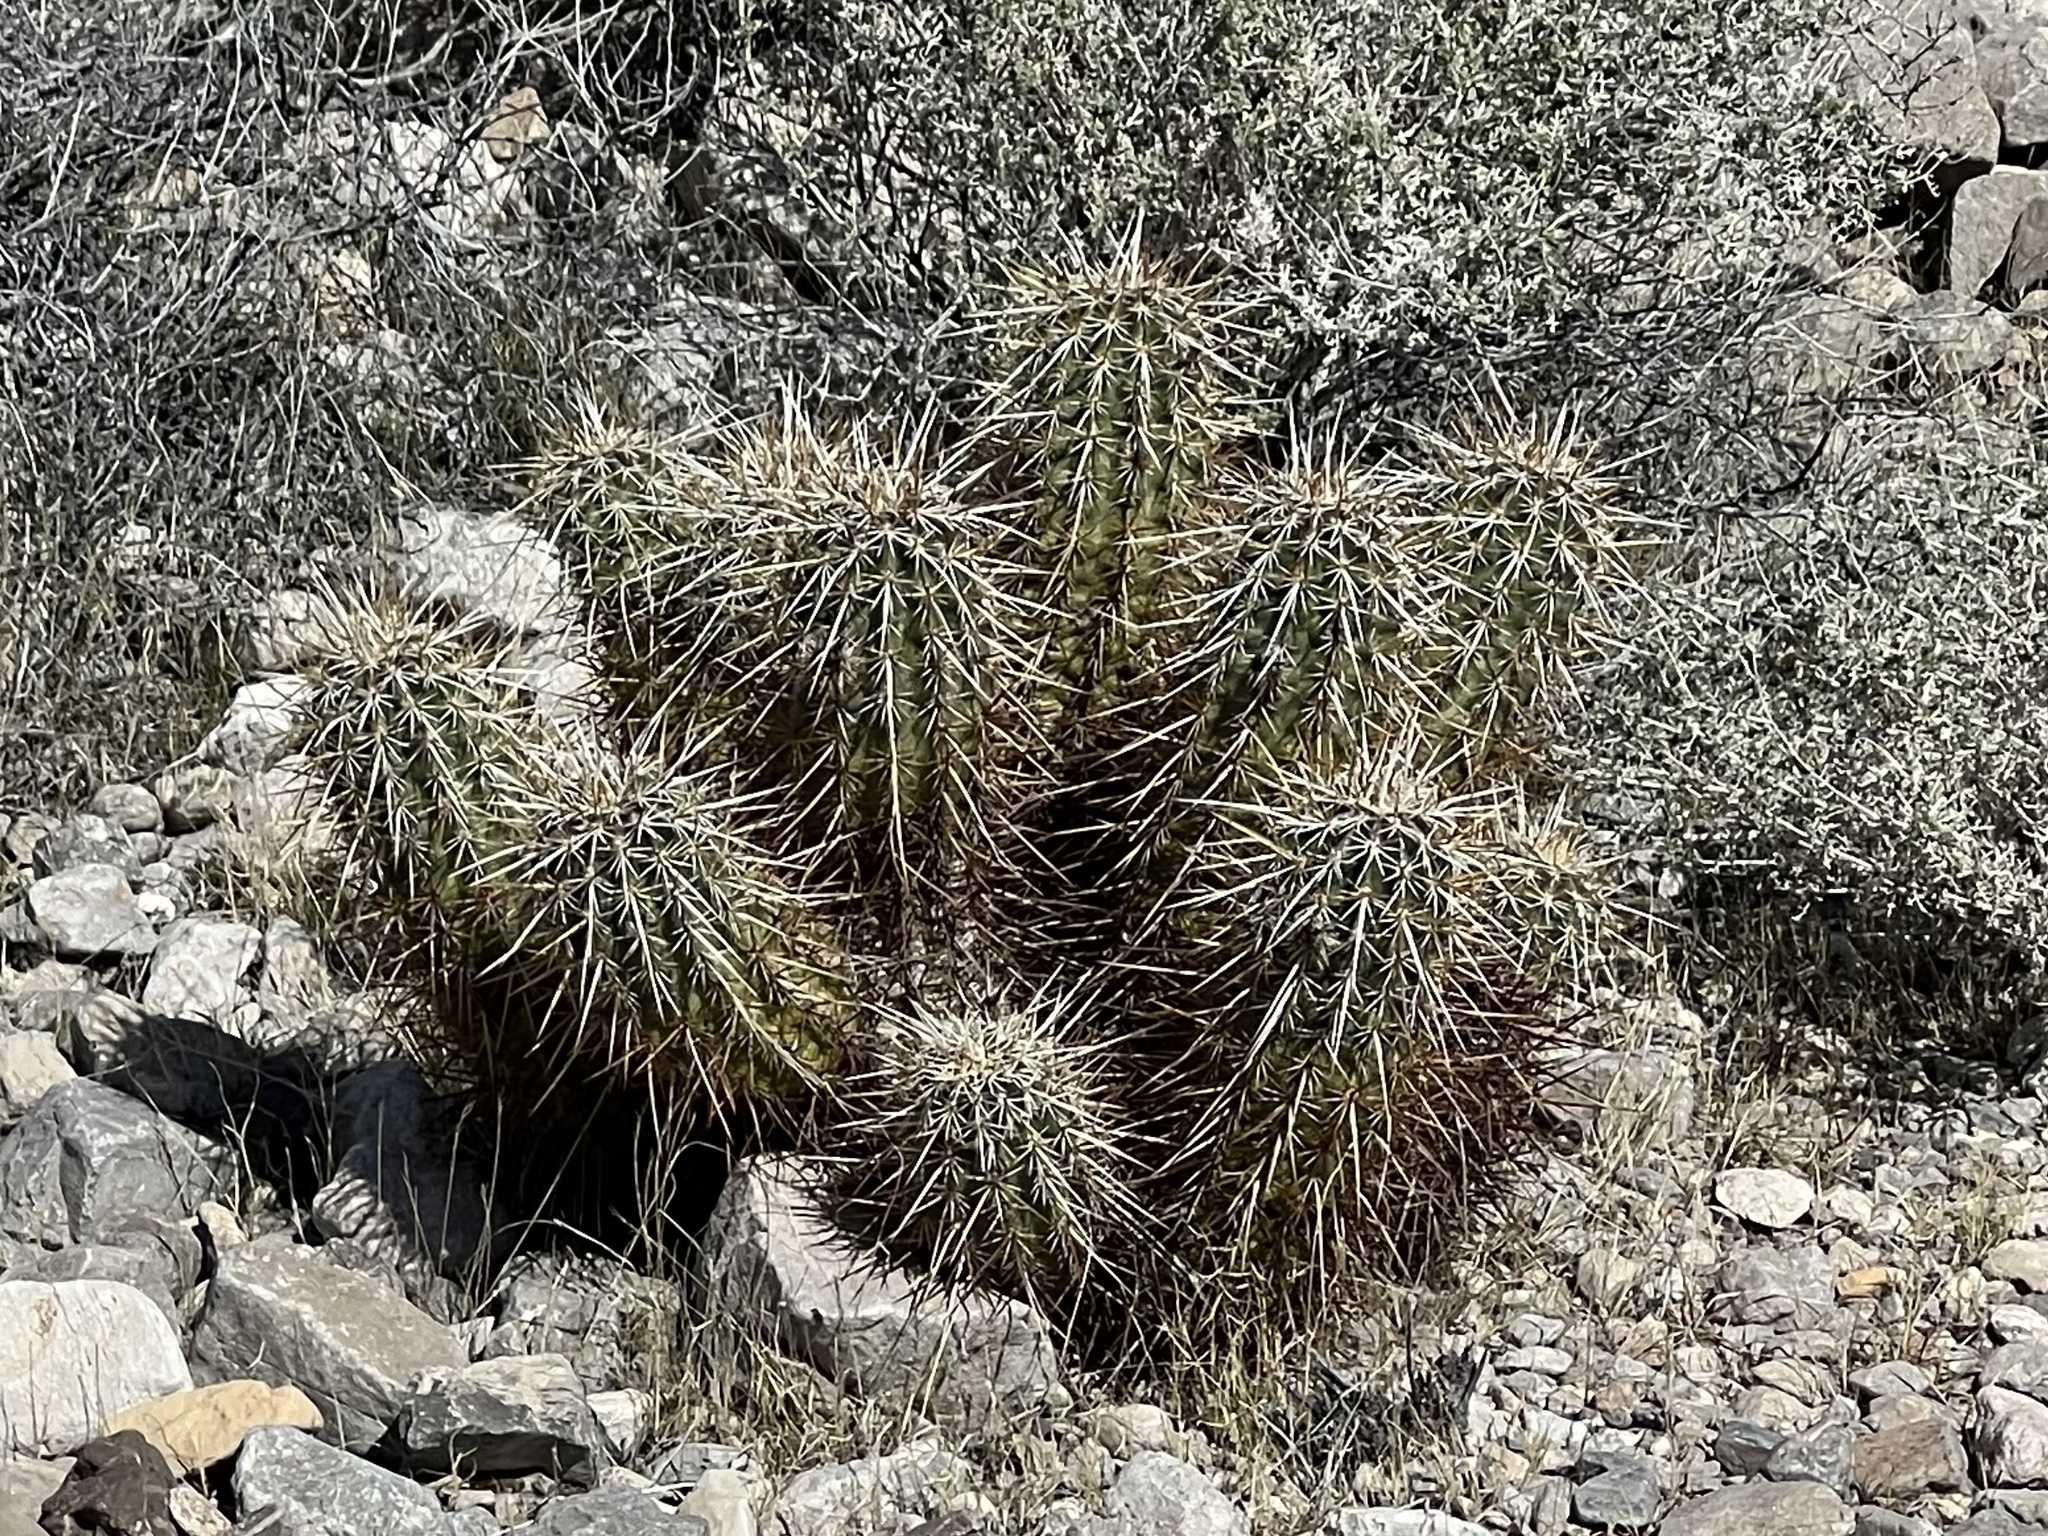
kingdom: Plantae
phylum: Tracheophyta
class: Magnoliopsida
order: Caryophyllales
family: Cactaceae
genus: Echinocereus
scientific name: Echinocereus engelmannii
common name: Engelmann's hedgehog cactus
